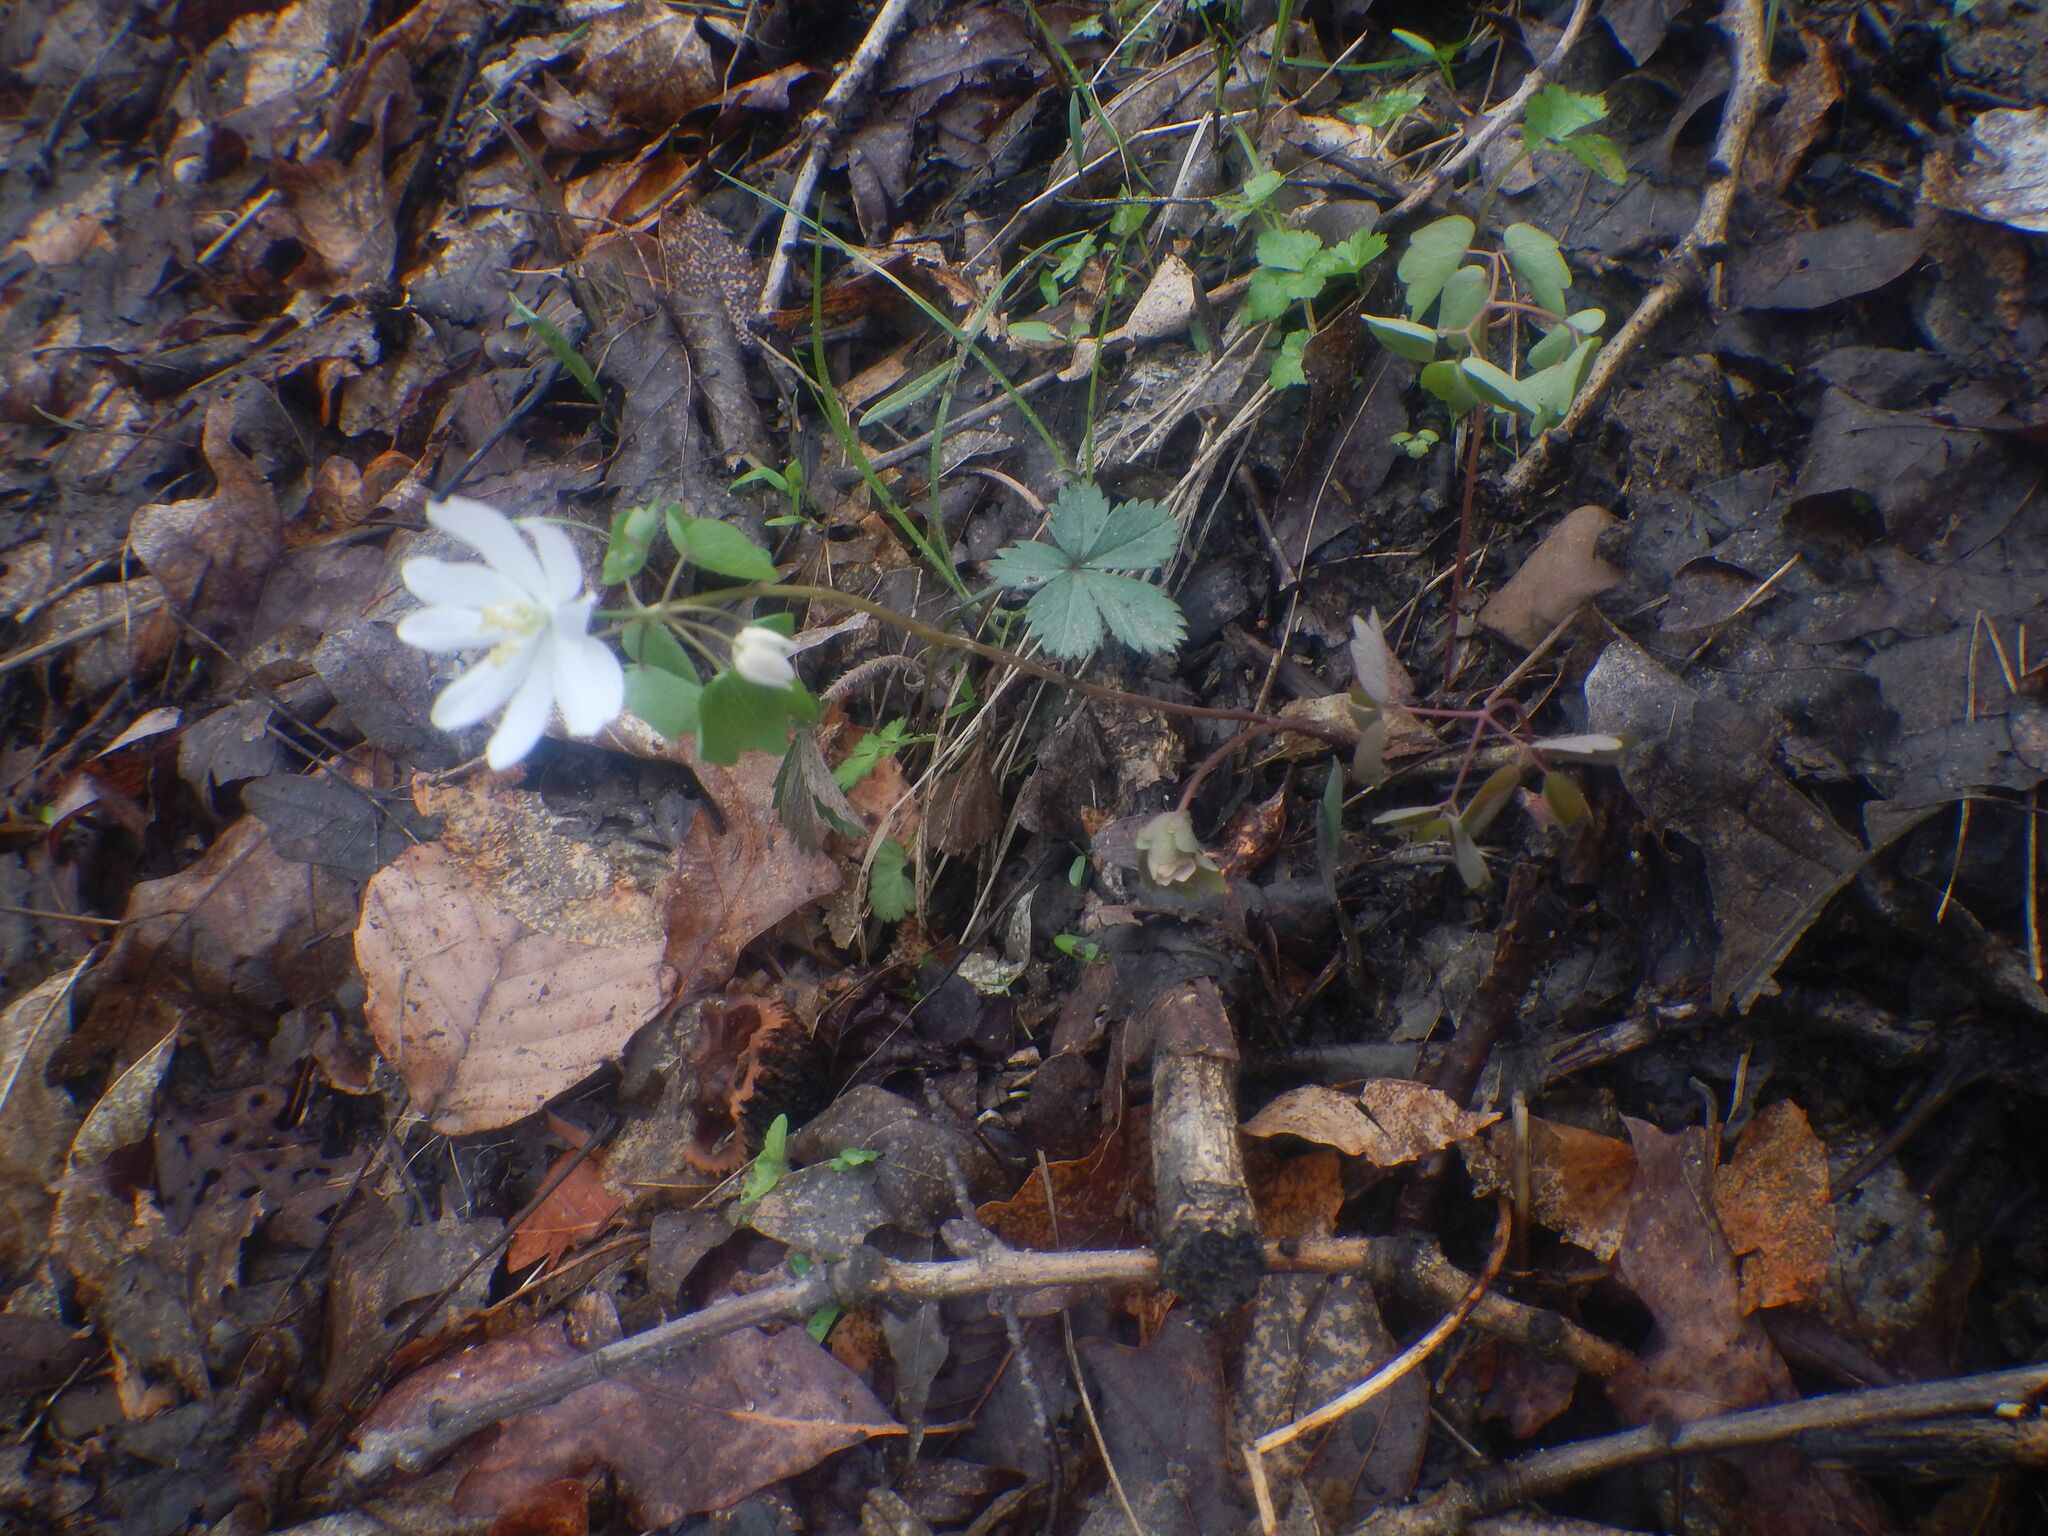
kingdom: Plantae
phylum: Tracheophyta
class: Magnoliopsida
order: Ranunculales
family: Ranunculaceae
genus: Thalictrum
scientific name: Thalictrum thalictroides
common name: Rue-anemone
